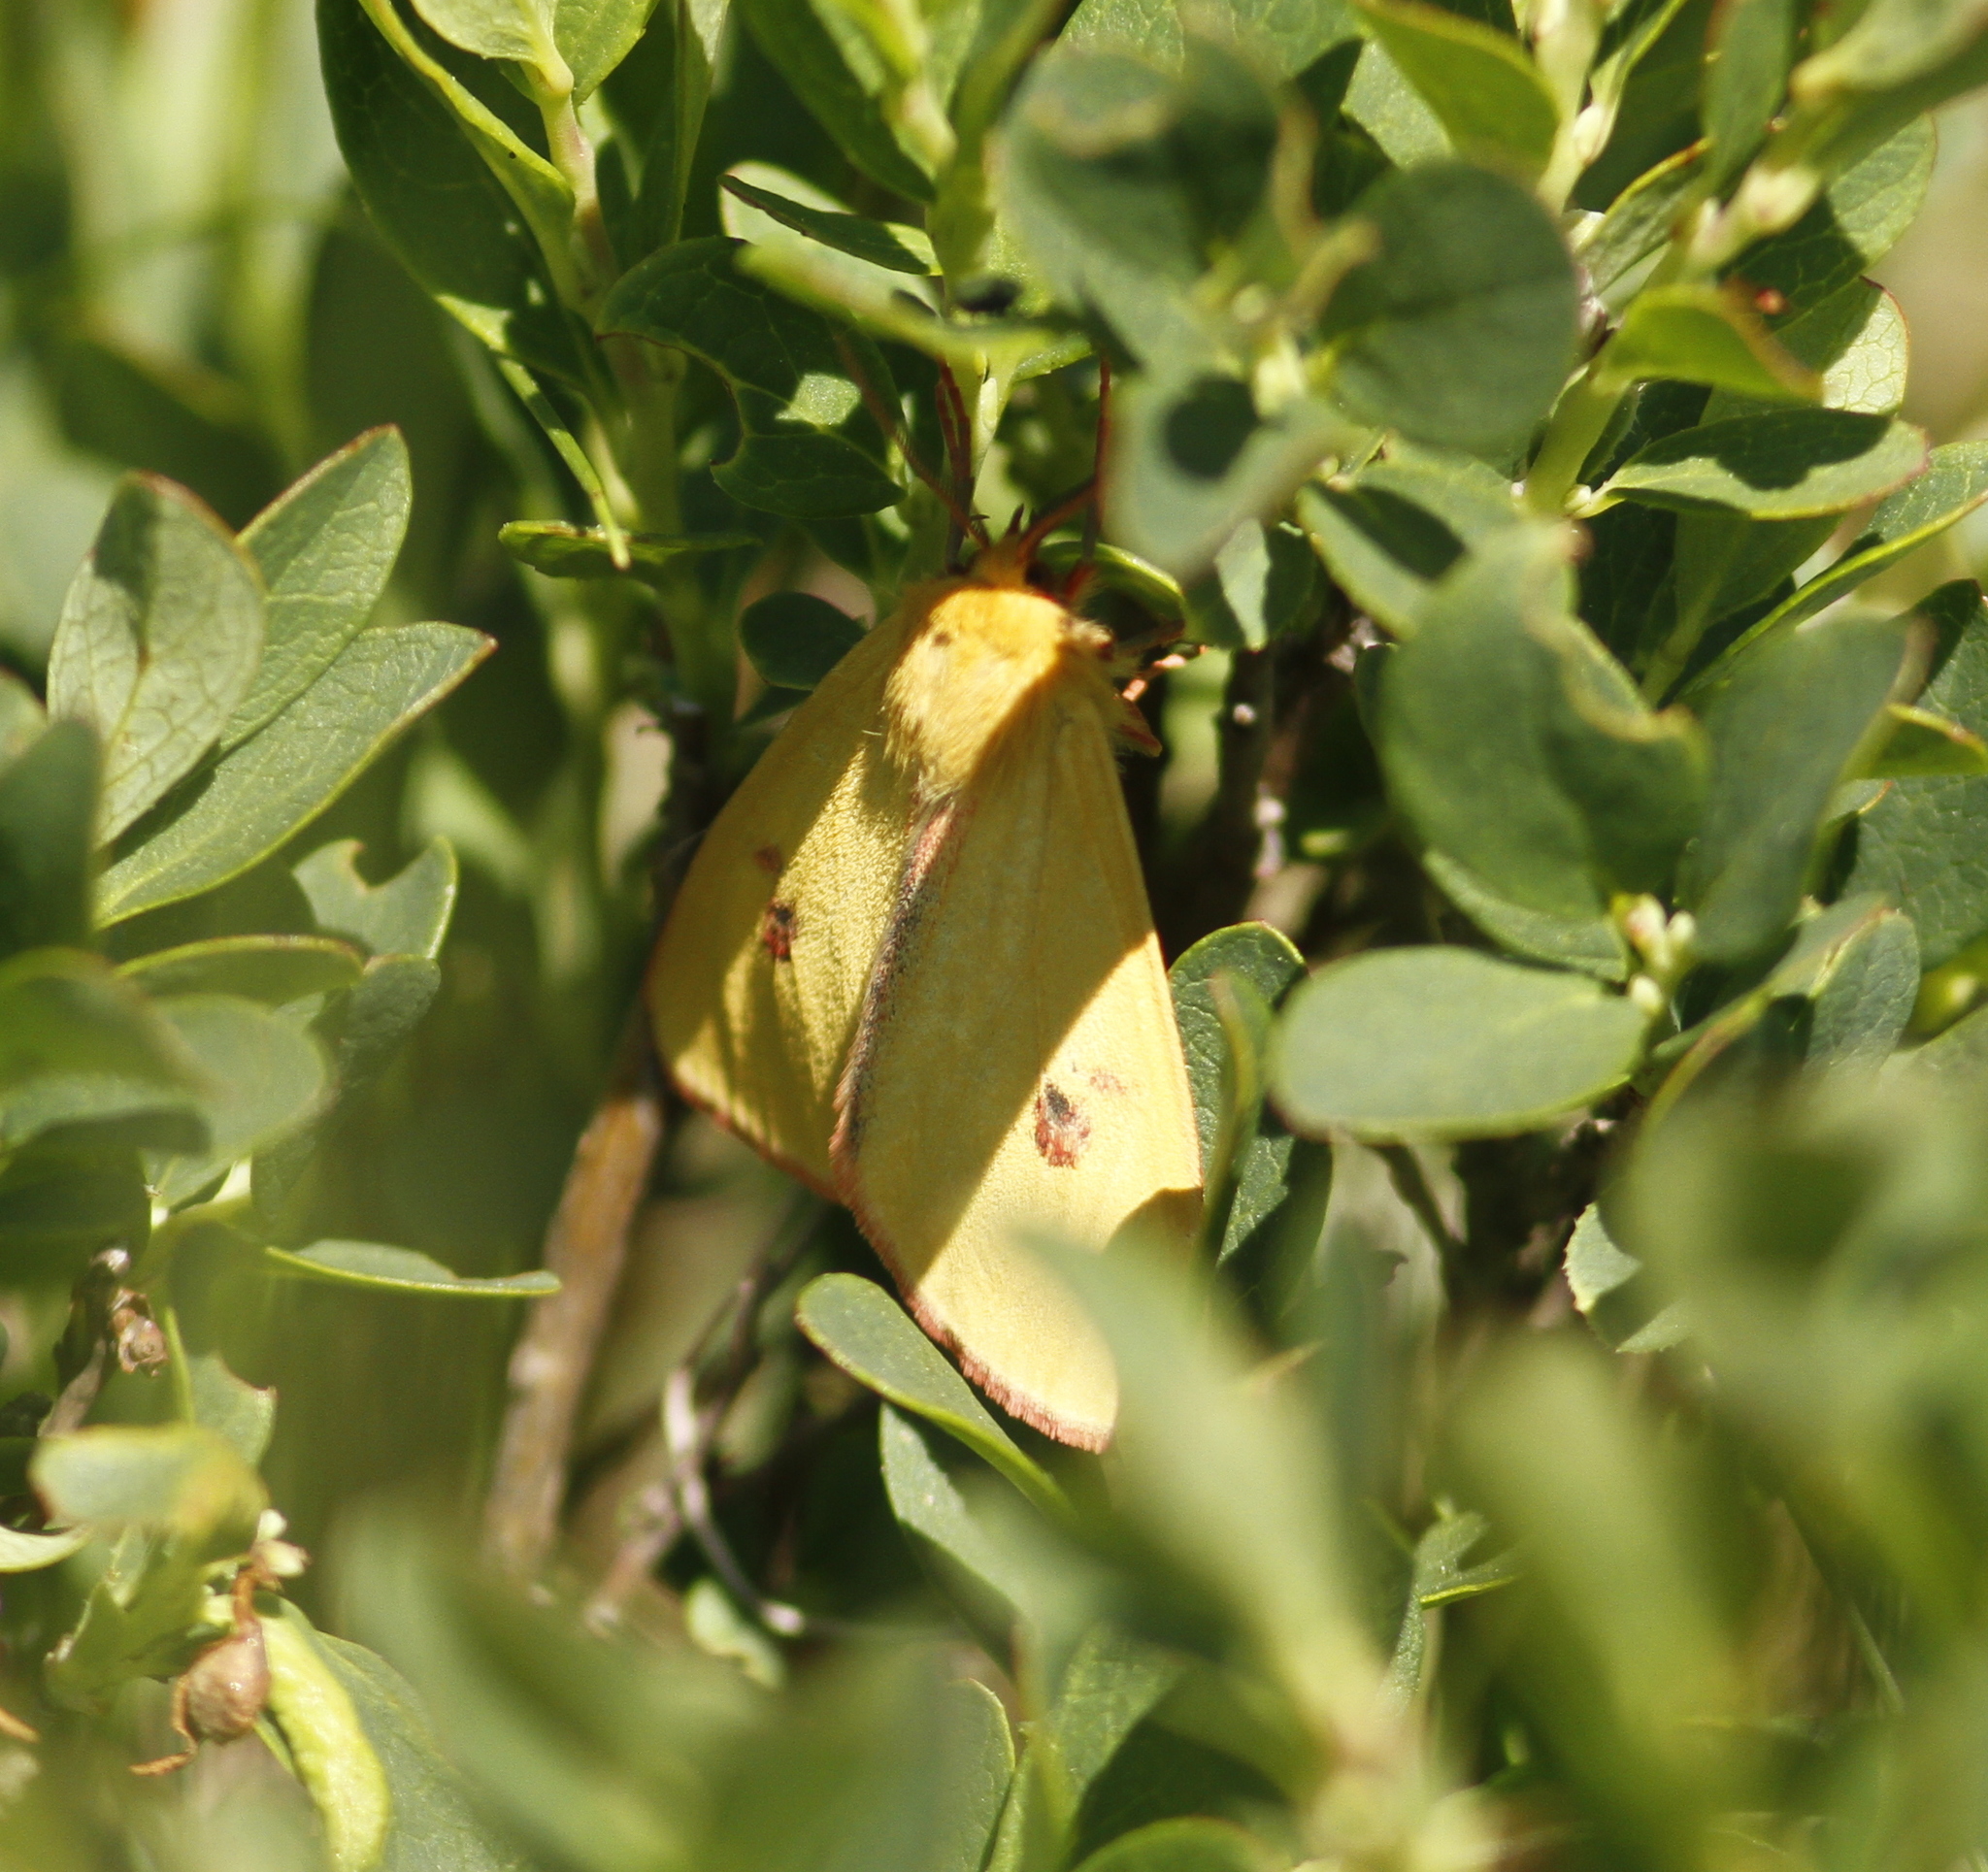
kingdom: Animalia
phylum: Arthropoda
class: Insecta
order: Lepidoptera
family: Erebidae
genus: Diacrisia
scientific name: Diacrisia sannio
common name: Clouded buff
